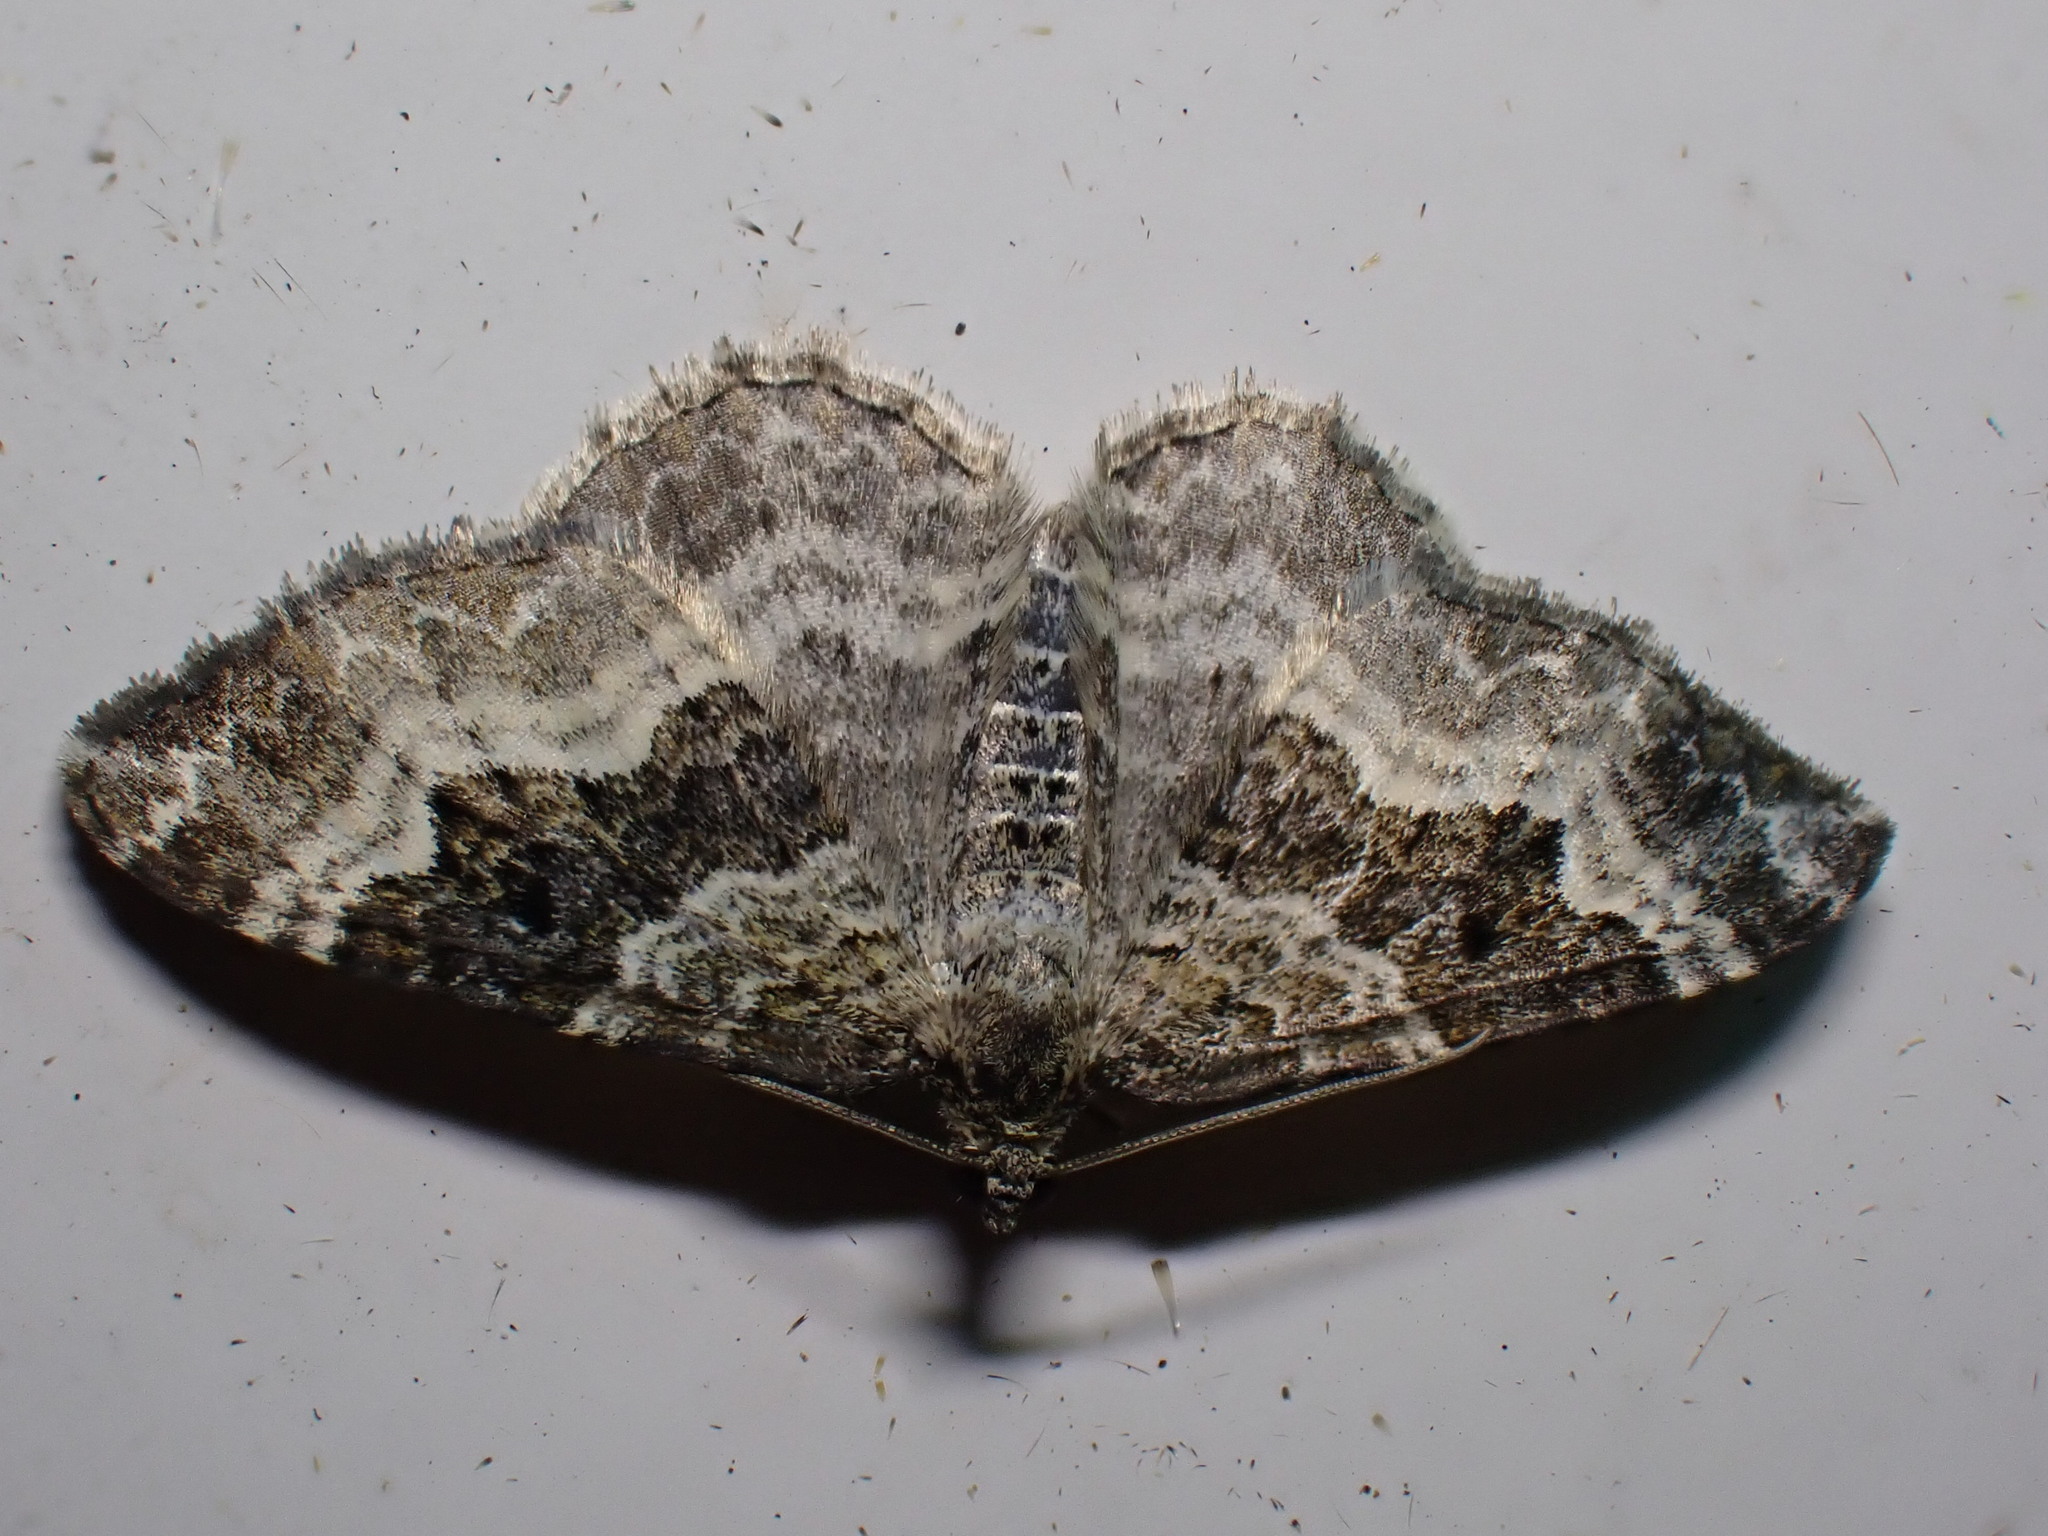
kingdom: Animalia
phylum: Arthropoda
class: Insecta
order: Lepidoptera
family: Geometridae
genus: Epirrhoe
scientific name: Epirrhoe alternata
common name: Common carpet
